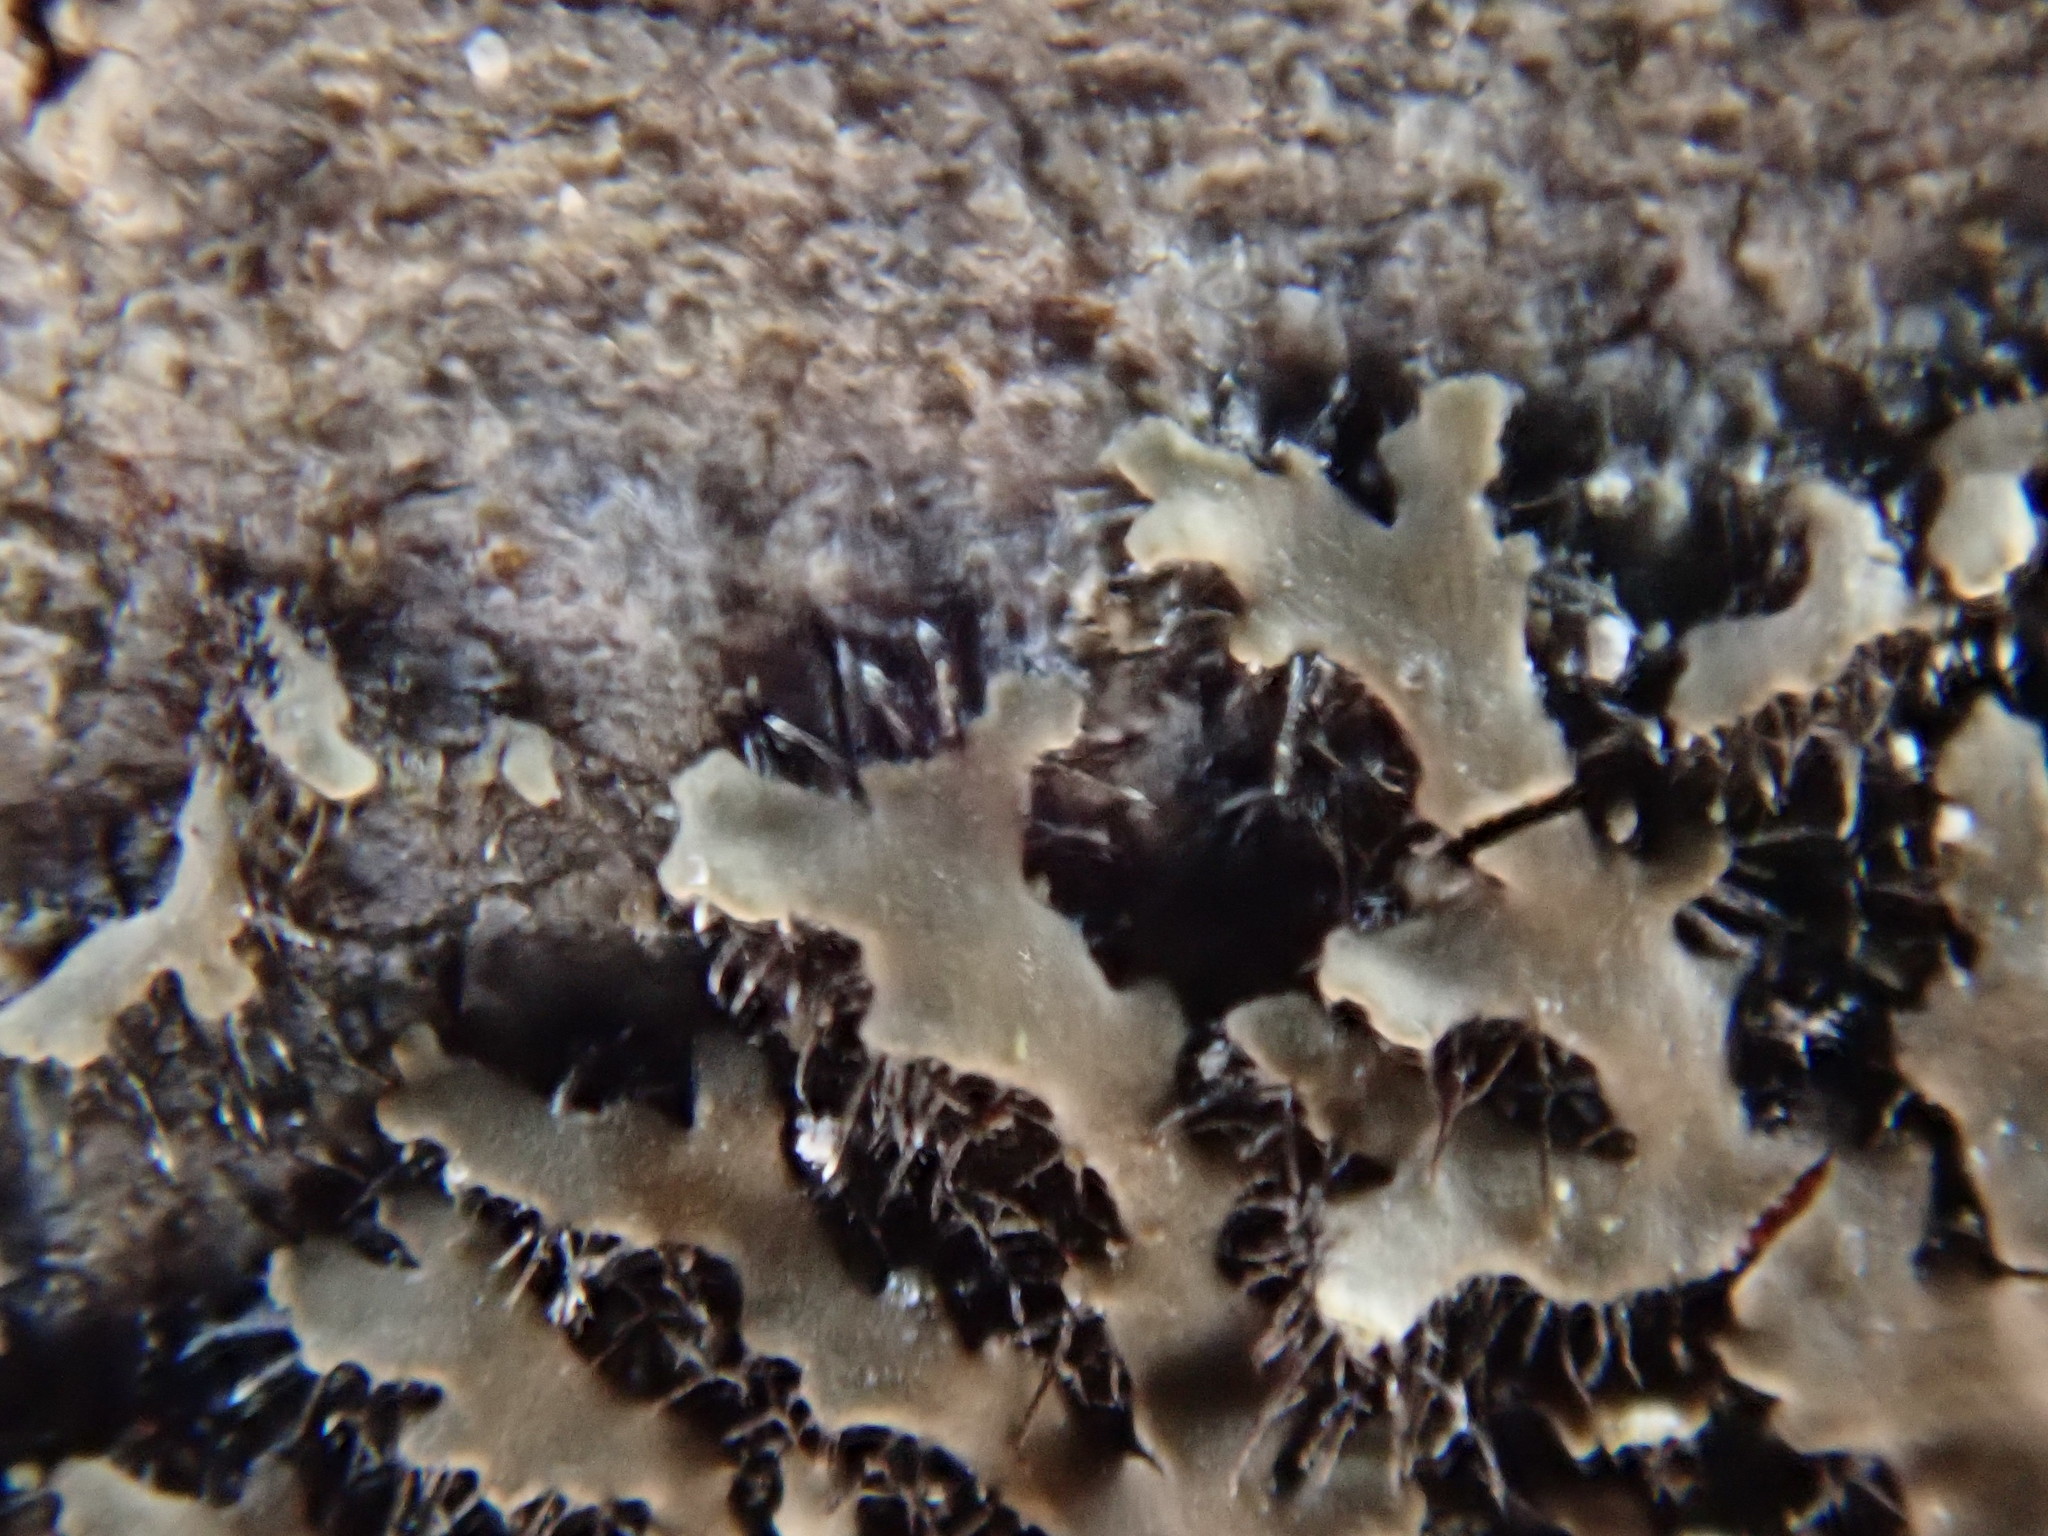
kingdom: Fungi
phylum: Ascomycota
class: Lecanoromycetes
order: Caliciales
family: Physciaceae
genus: Phaeophyscia
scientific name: Phaeophyscia rubropulchra
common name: Orange-cored shadow lichen
